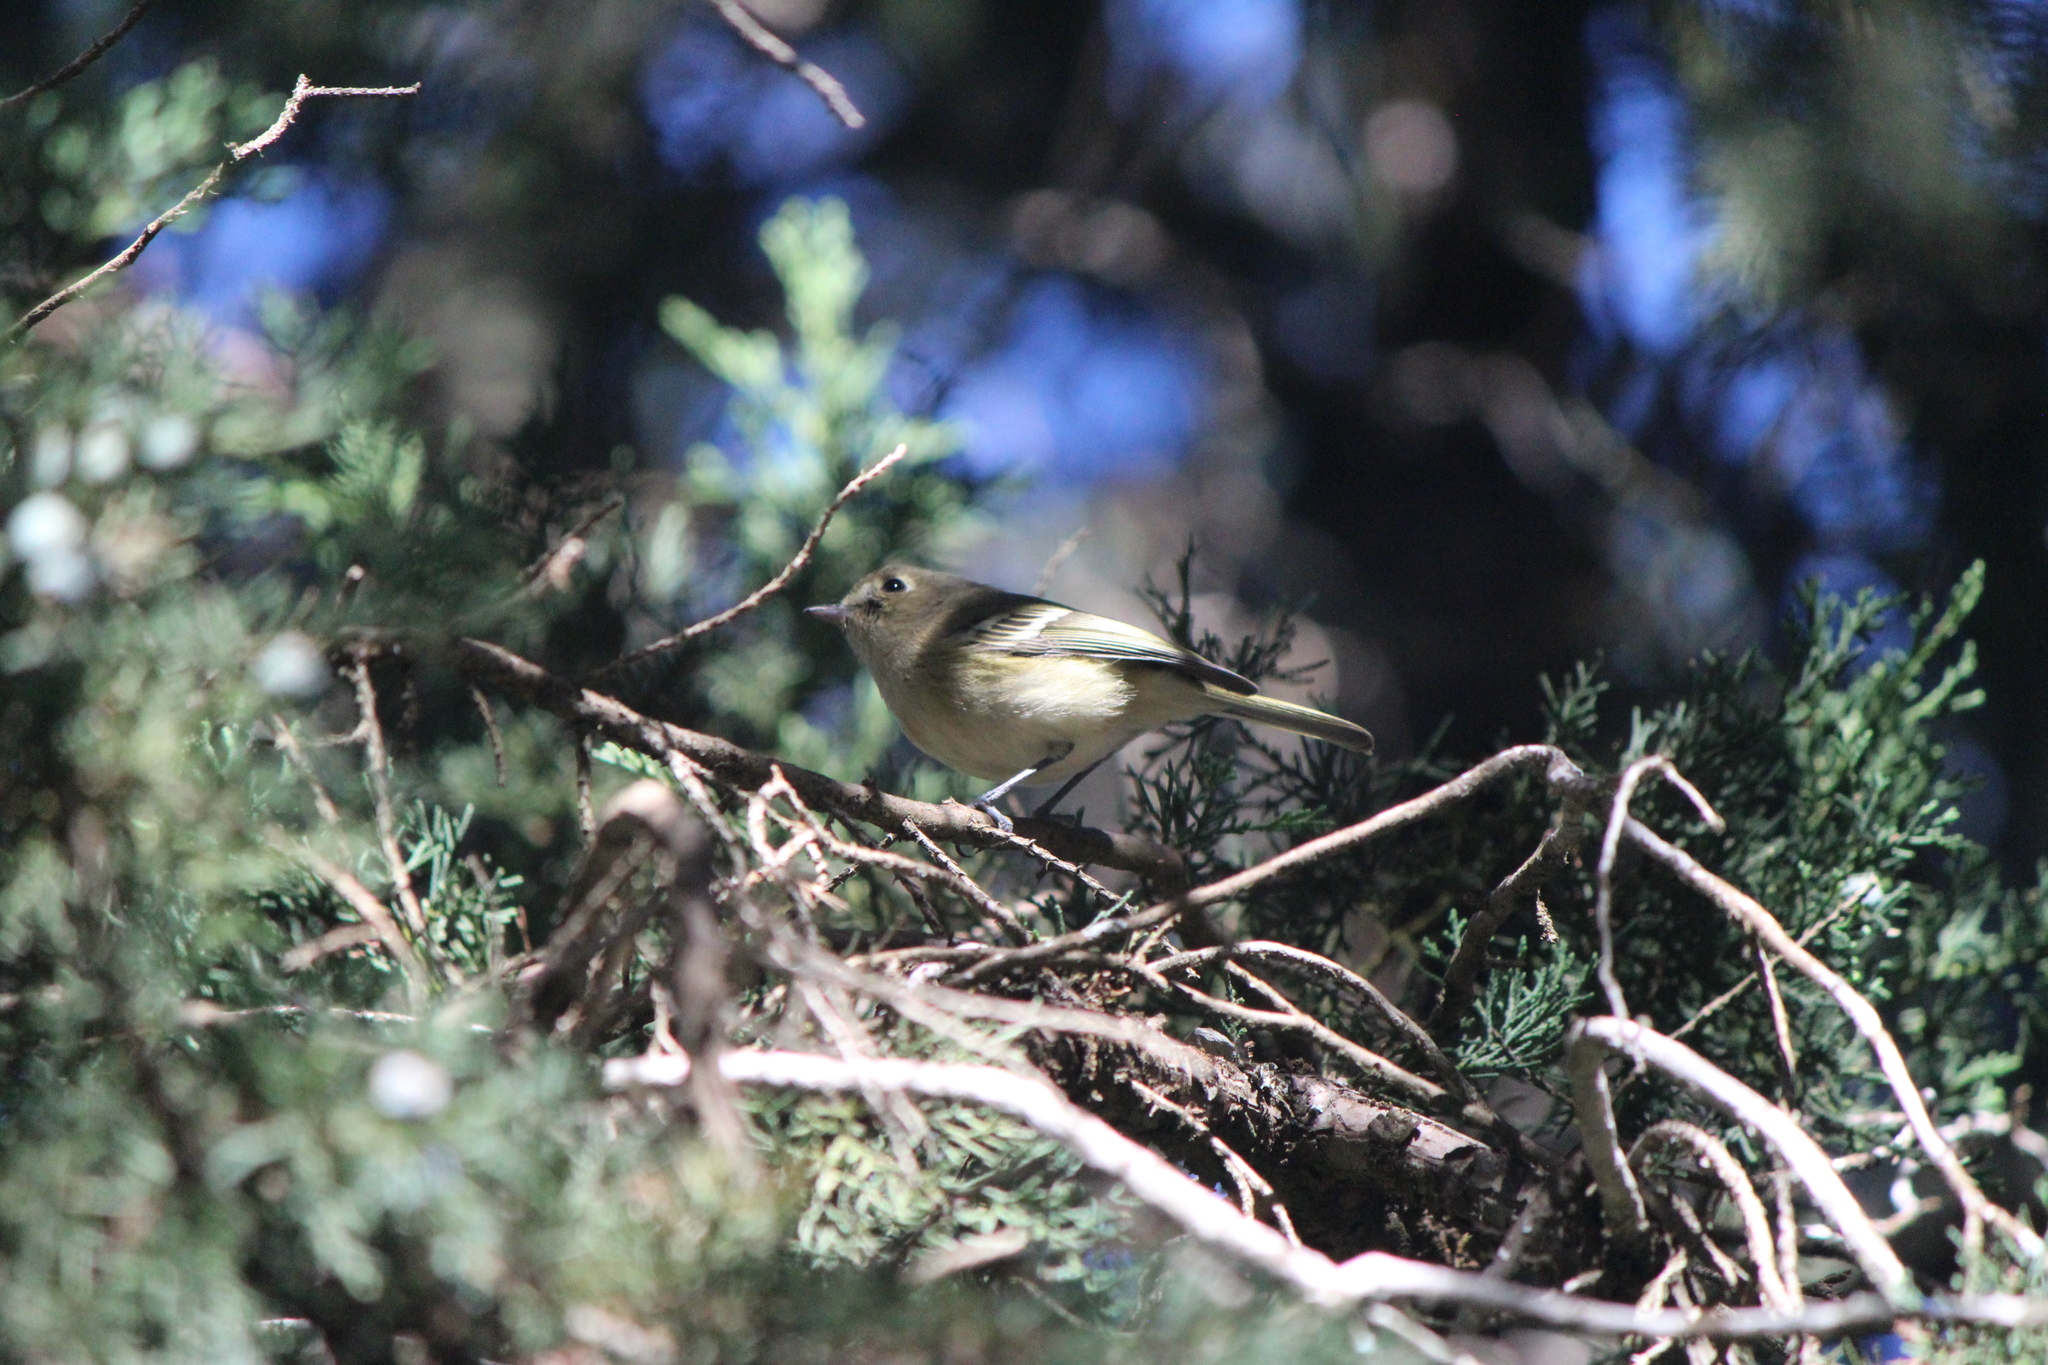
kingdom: Animalia
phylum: Chordata
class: Aves
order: Passeriformes
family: Vireonidae
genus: Vireo
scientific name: Vireo huttoni
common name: Hutton's vireo
